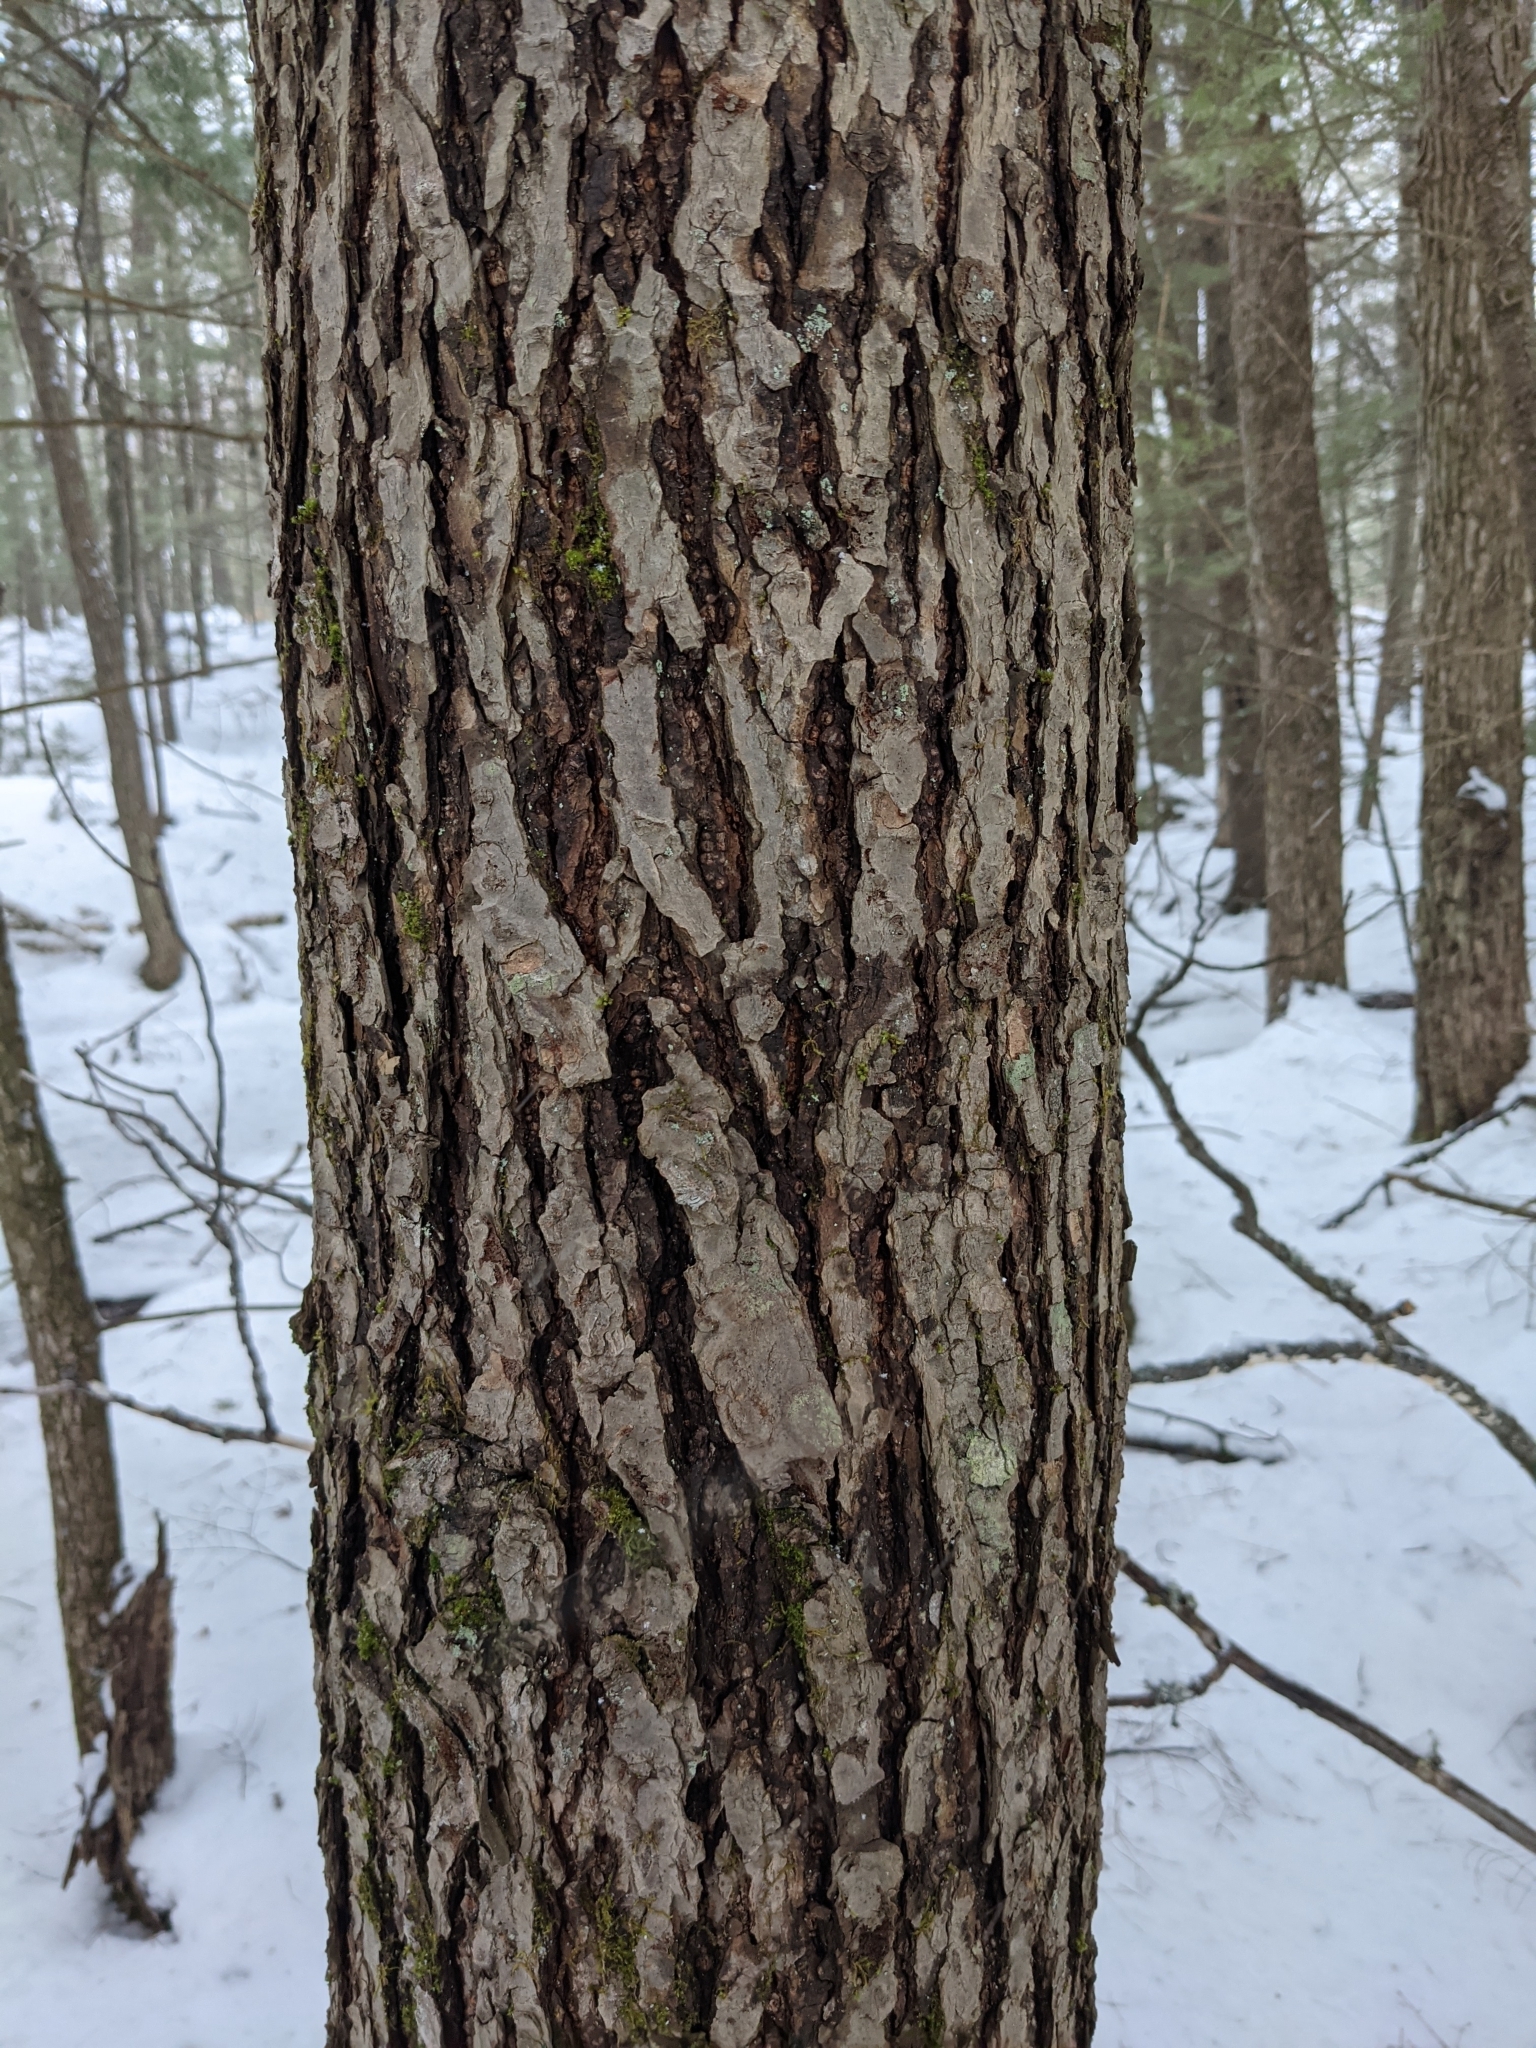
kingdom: Plantae
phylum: Tracheophyta
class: Pinopsida
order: Pinales
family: Pinaceae
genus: Tsuga
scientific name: Tsuga canadensis
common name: Eastern hemlock
